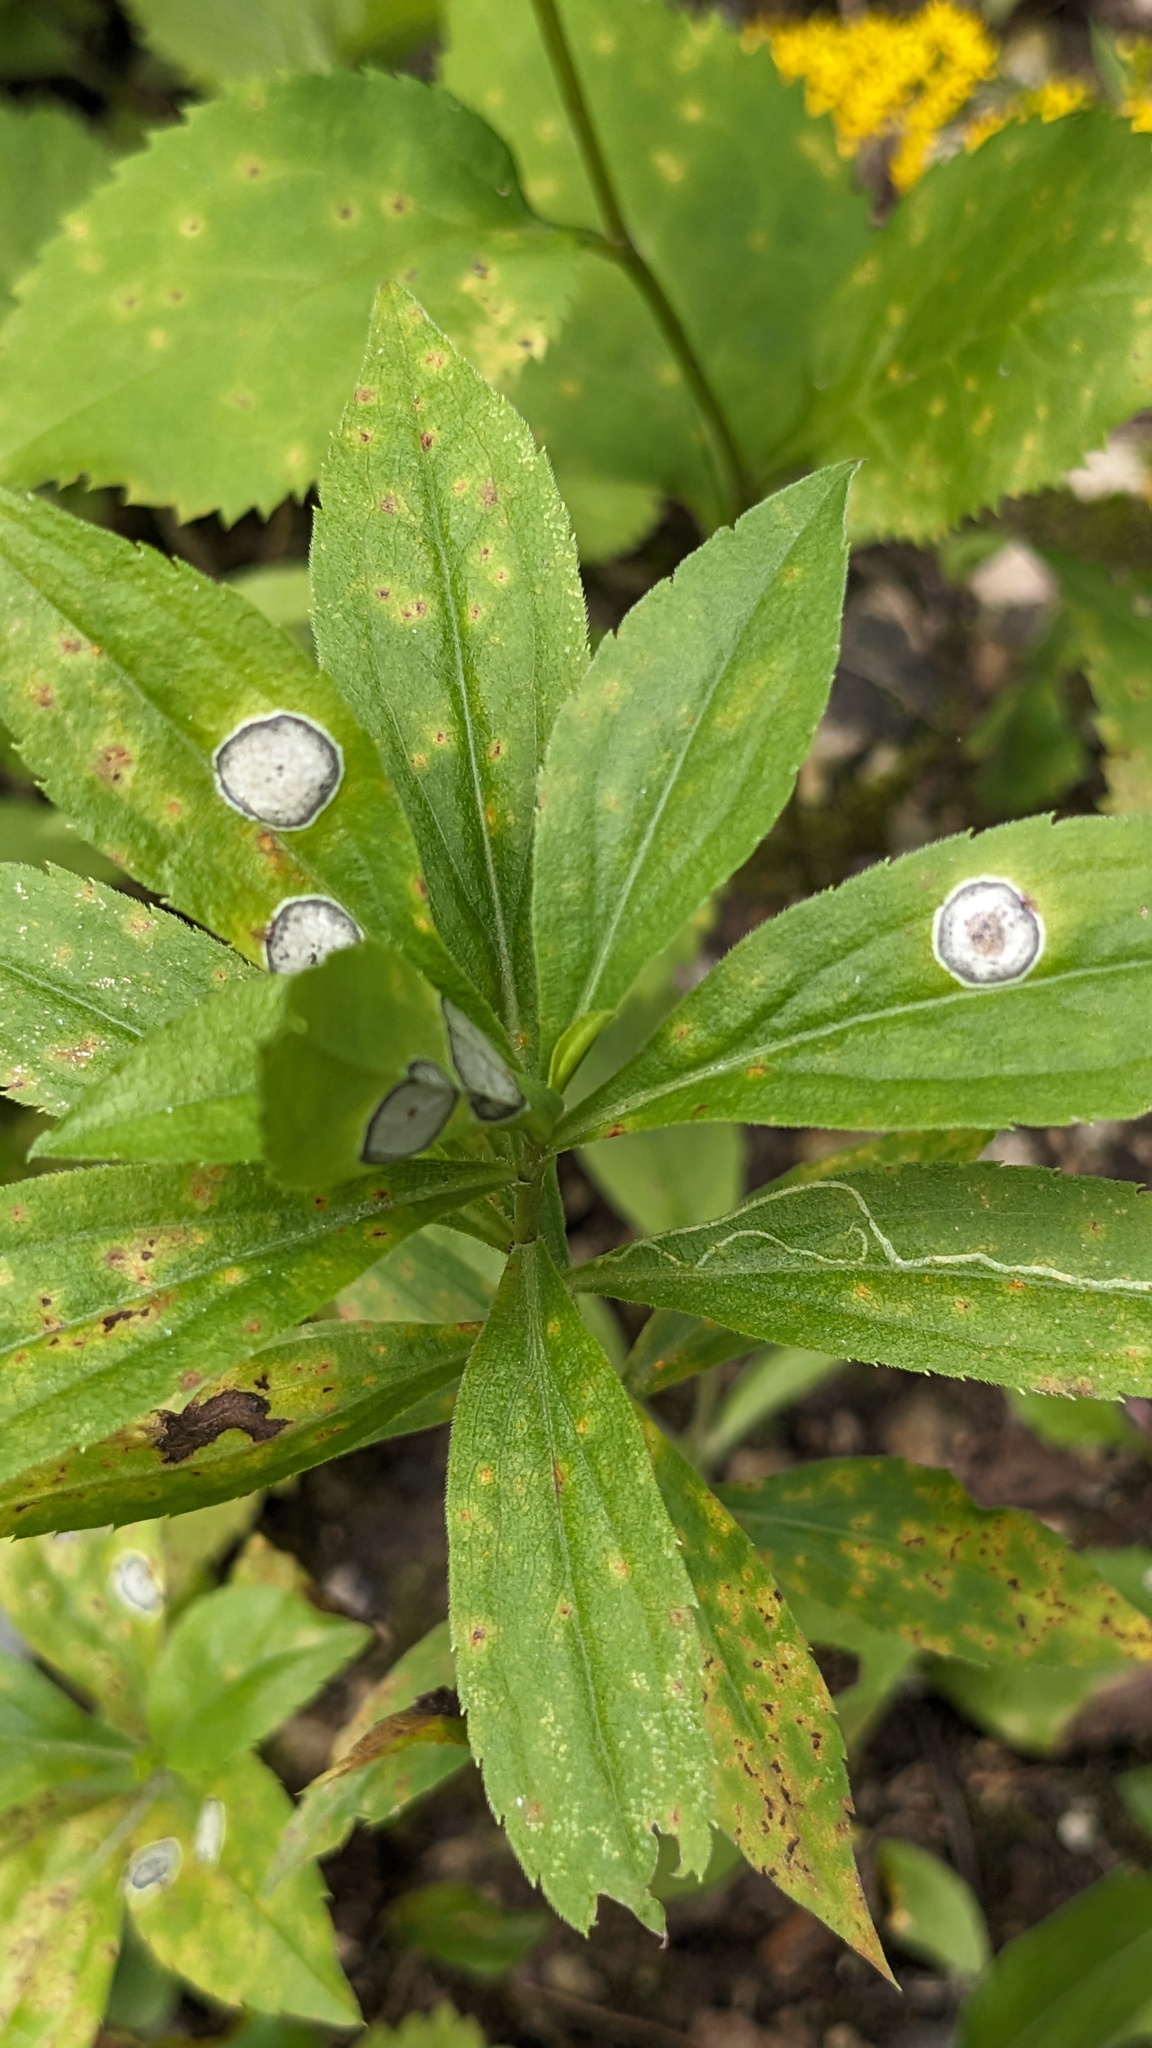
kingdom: Animalia
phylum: Arthropoda
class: Insecta
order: Diptera
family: Cecidomyiidae
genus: Asteromyia
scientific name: Asteromyia carbonifera
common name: Carbonifera goldenrod gall midge
